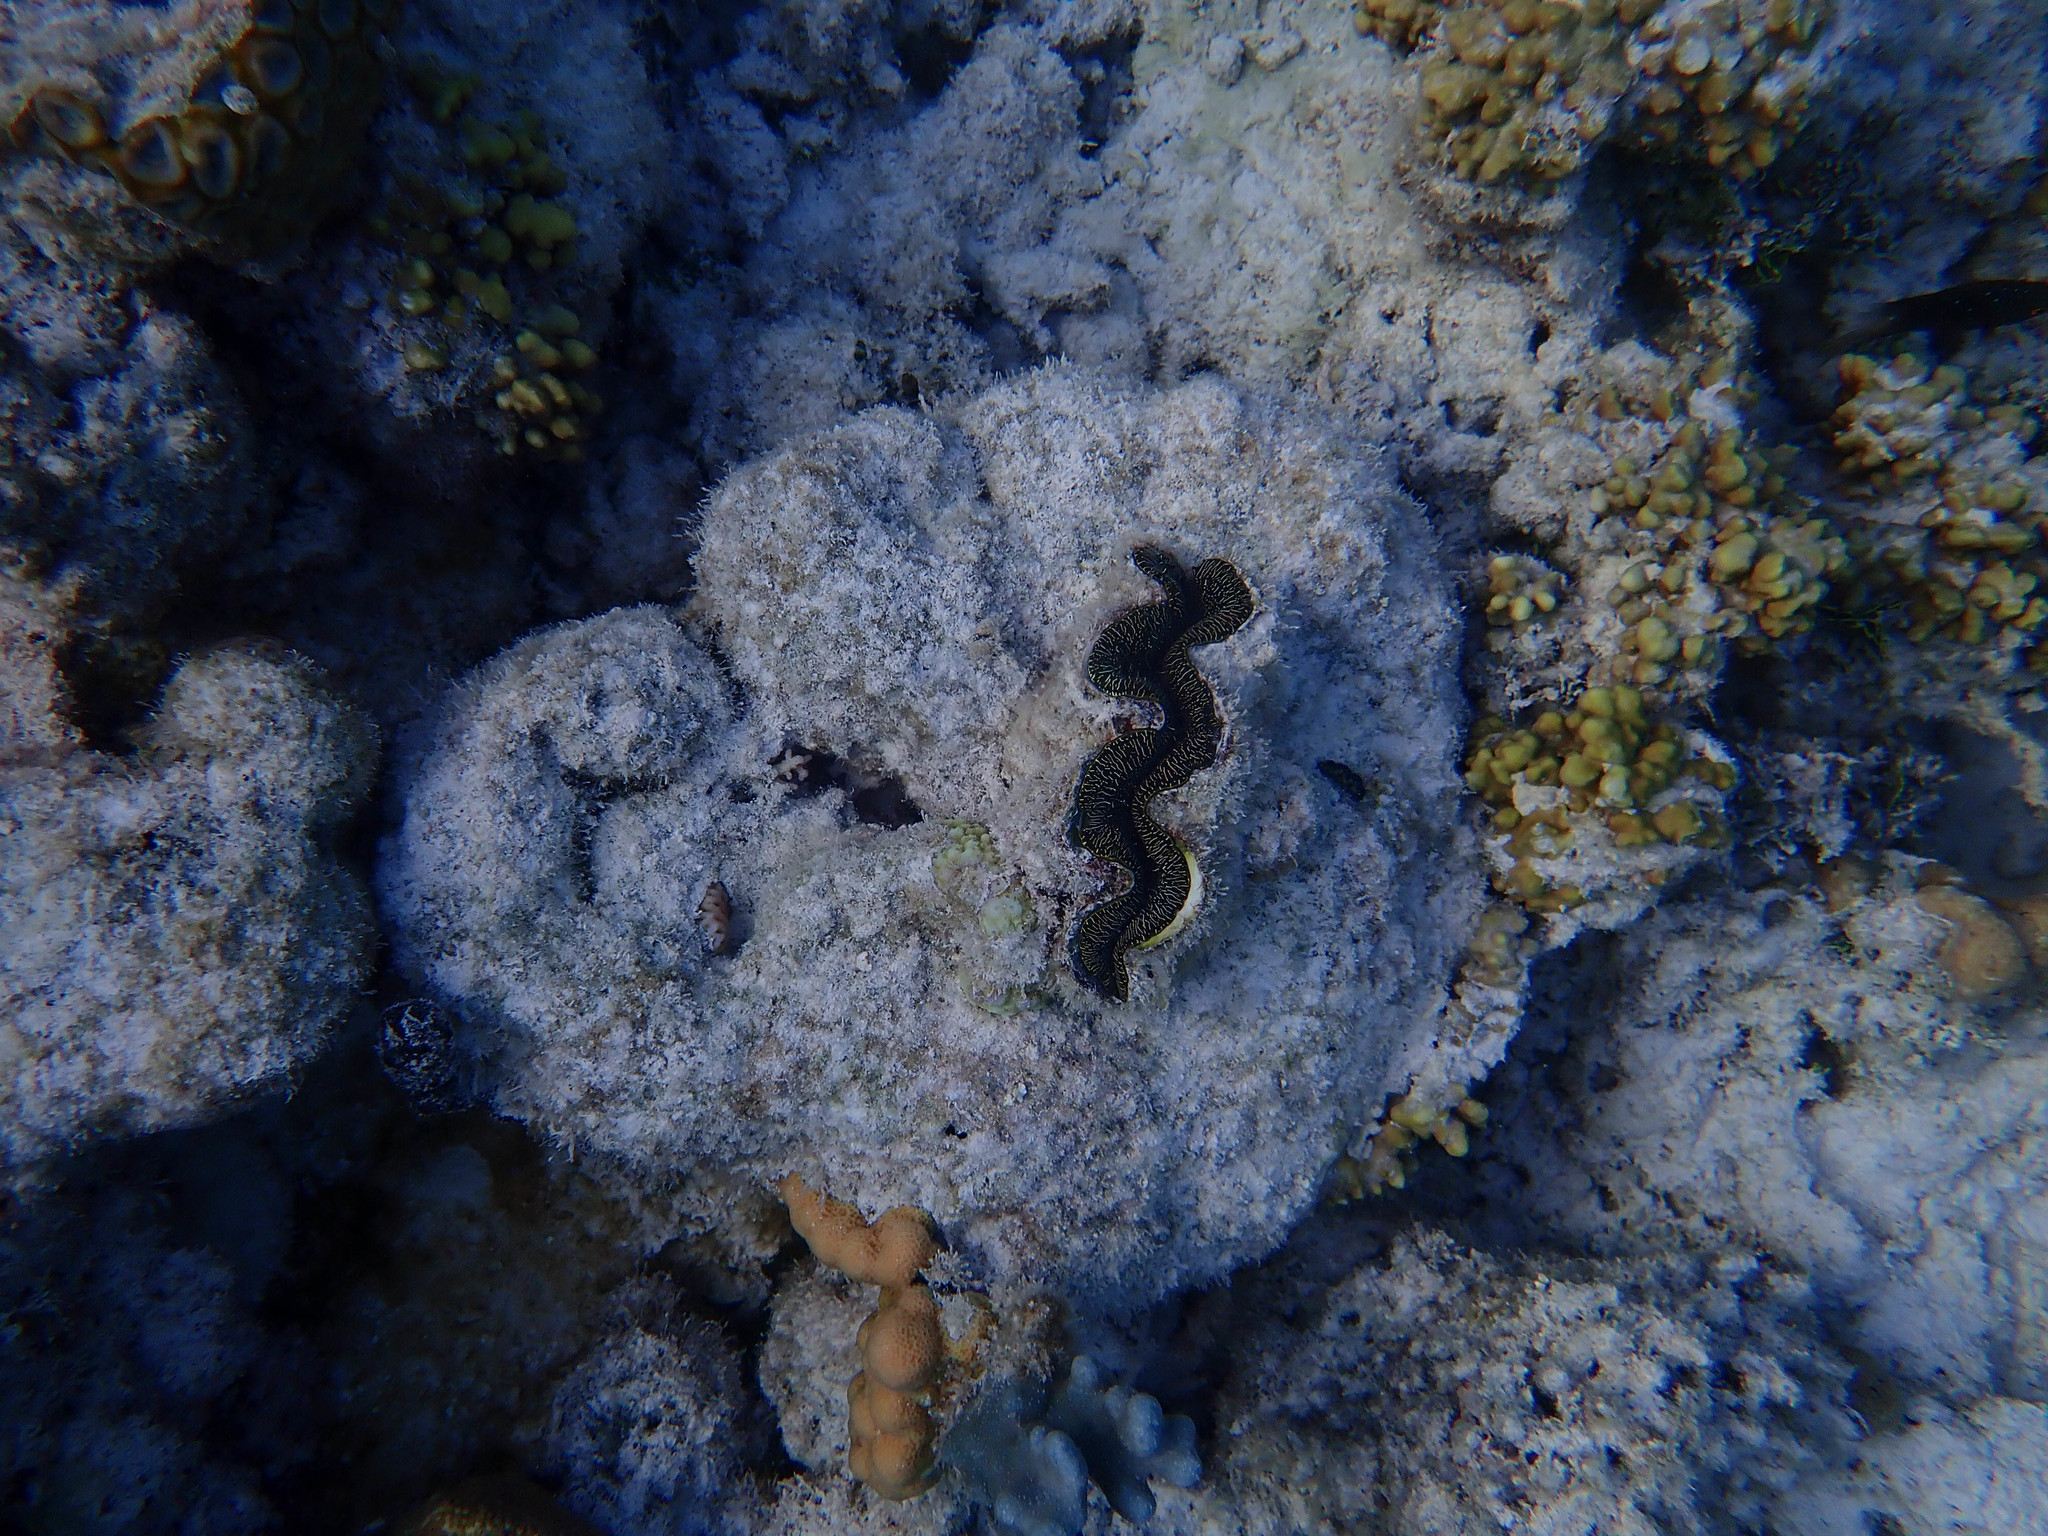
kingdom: Animalia
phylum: Mollusca
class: Bivalvia
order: Cardiida
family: Cardiidae
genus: Tridacna
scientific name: Tridacna crocea
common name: Boring clam
